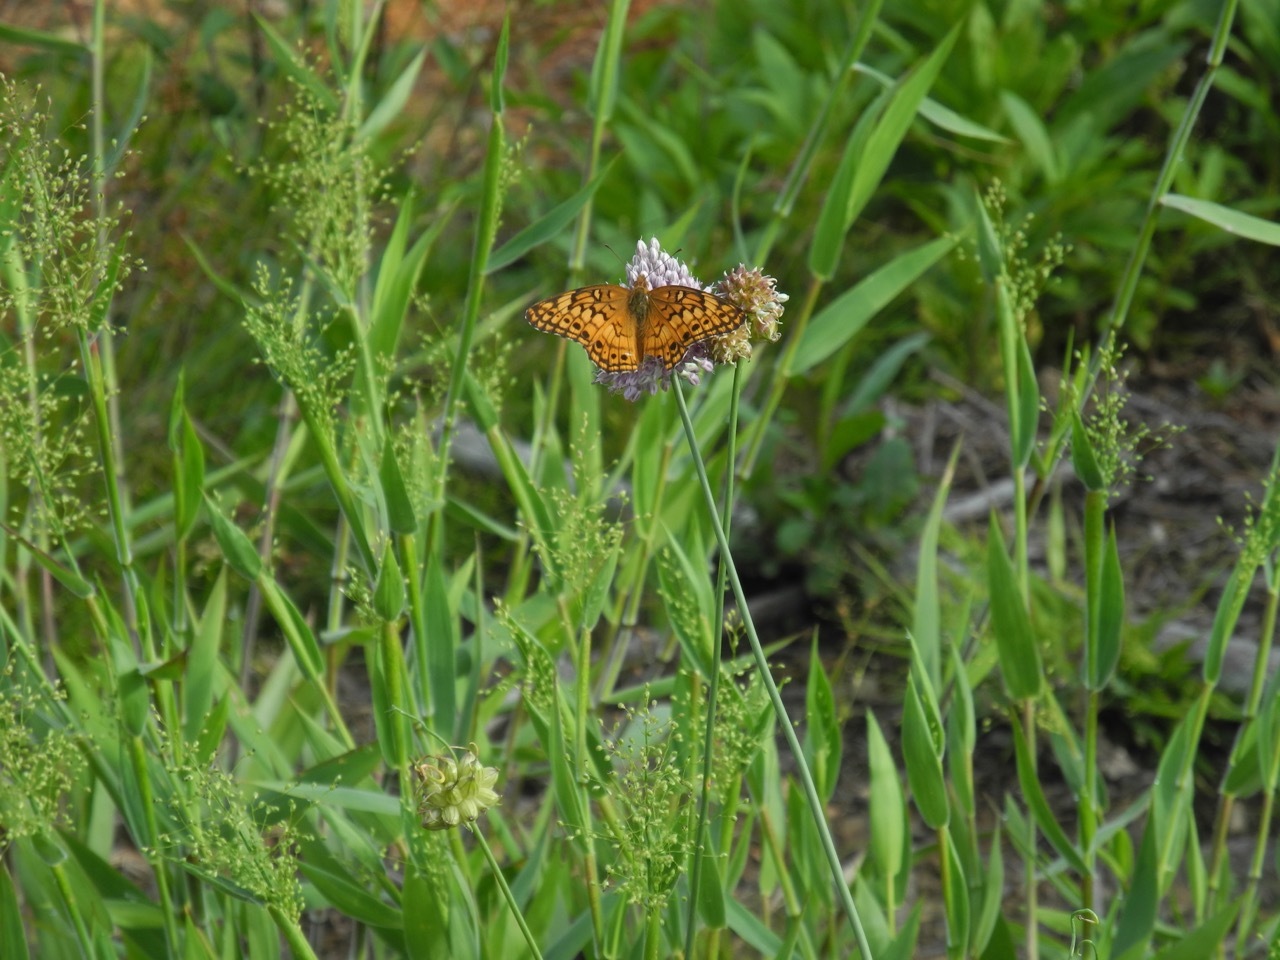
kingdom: Animalia
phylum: Arthropoda
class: Insecta
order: Lepidoptera
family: Nymphalidae
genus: Euptoieta
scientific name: Euptoieta claudia
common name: Variegated fritillary
